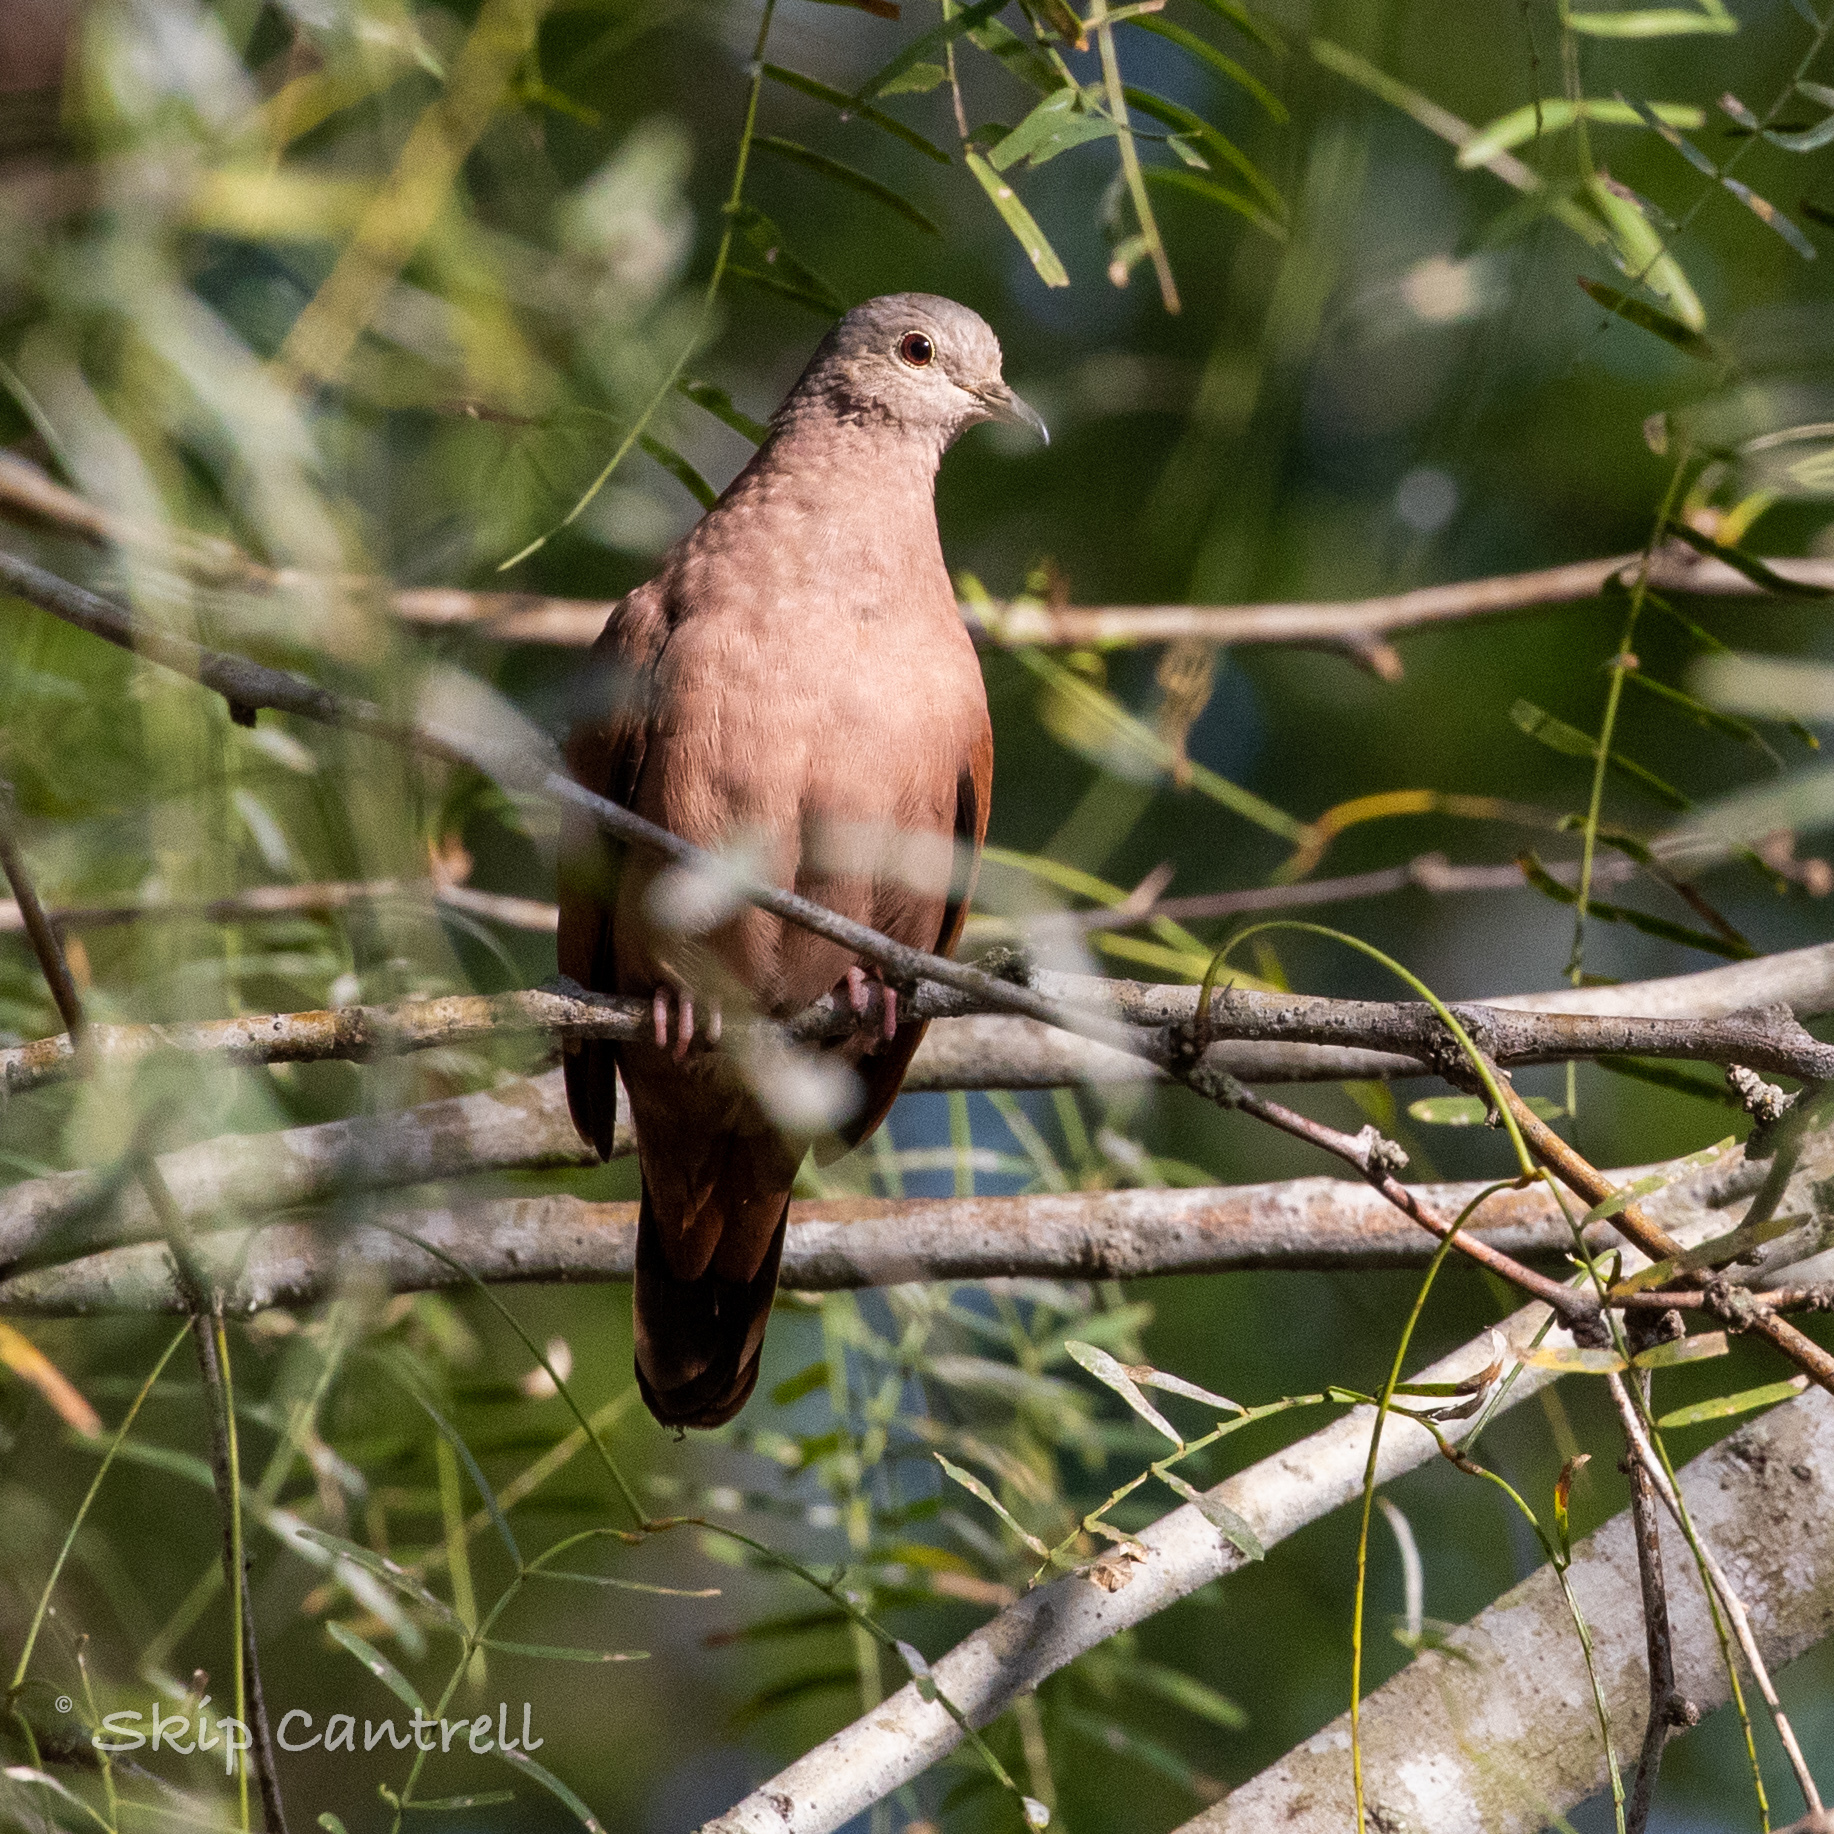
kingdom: Animalia
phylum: Chordata
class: Aves
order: Columbiformes
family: Columbidae
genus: Columbina
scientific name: Columbina talpacoti
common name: Ruddy ground dove
